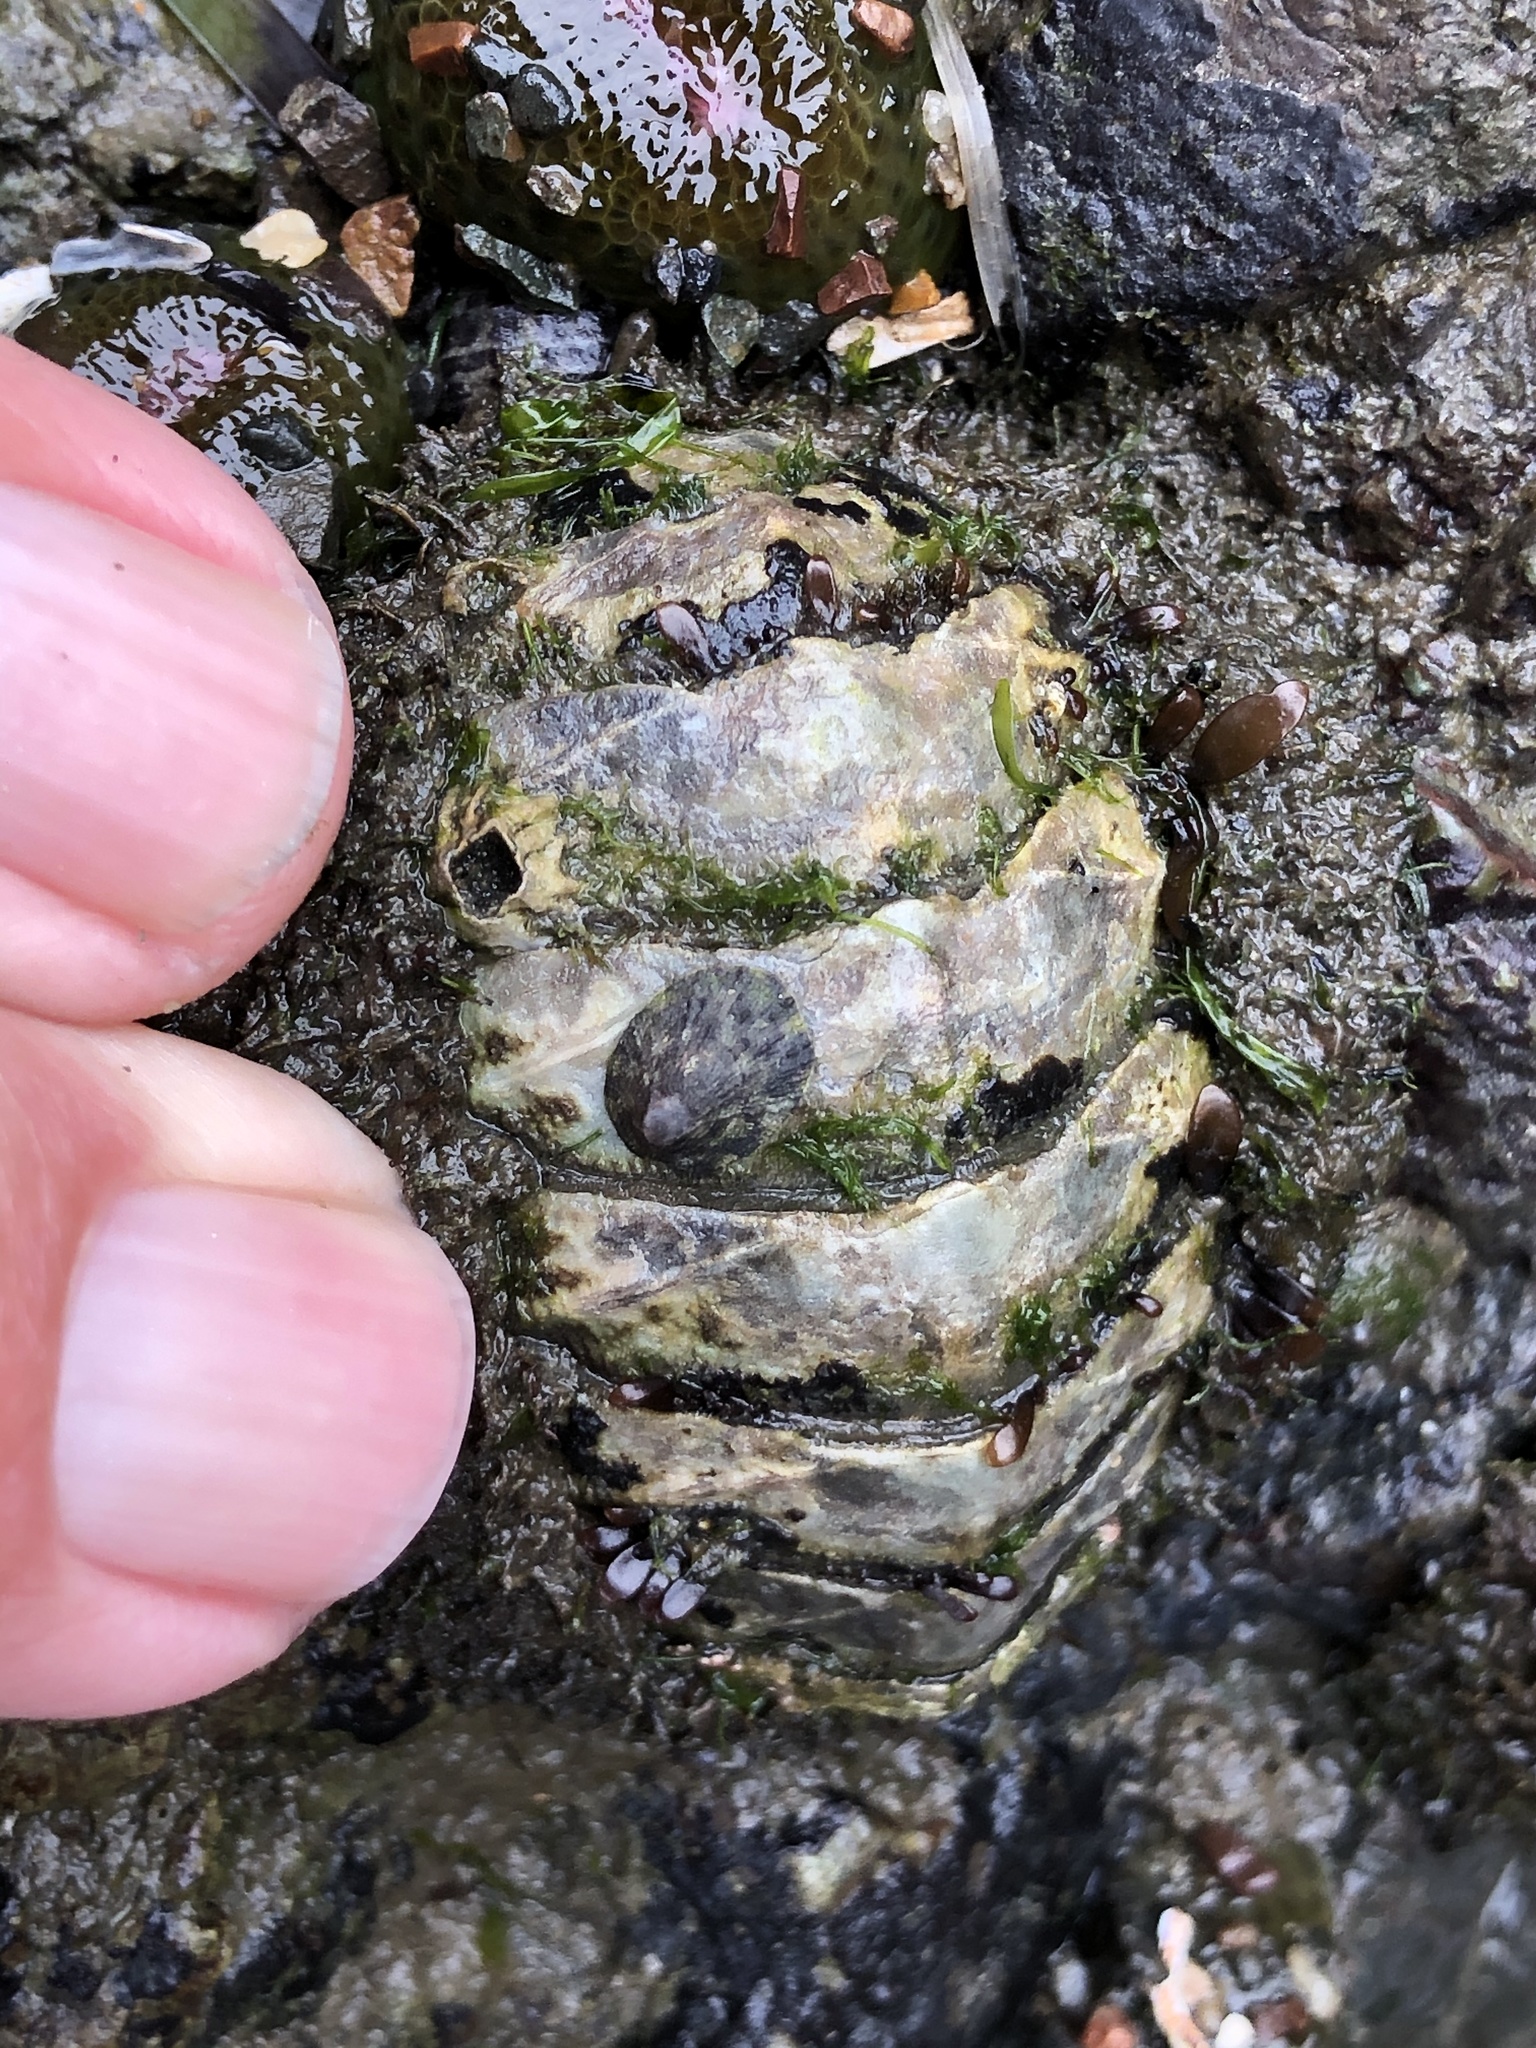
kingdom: Animalia
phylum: Mollusca
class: Polyplacophora
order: Chitonida
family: Mopaliidae
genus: Mopalia
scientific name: Mopalia muscosa
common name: Mossy chiton
